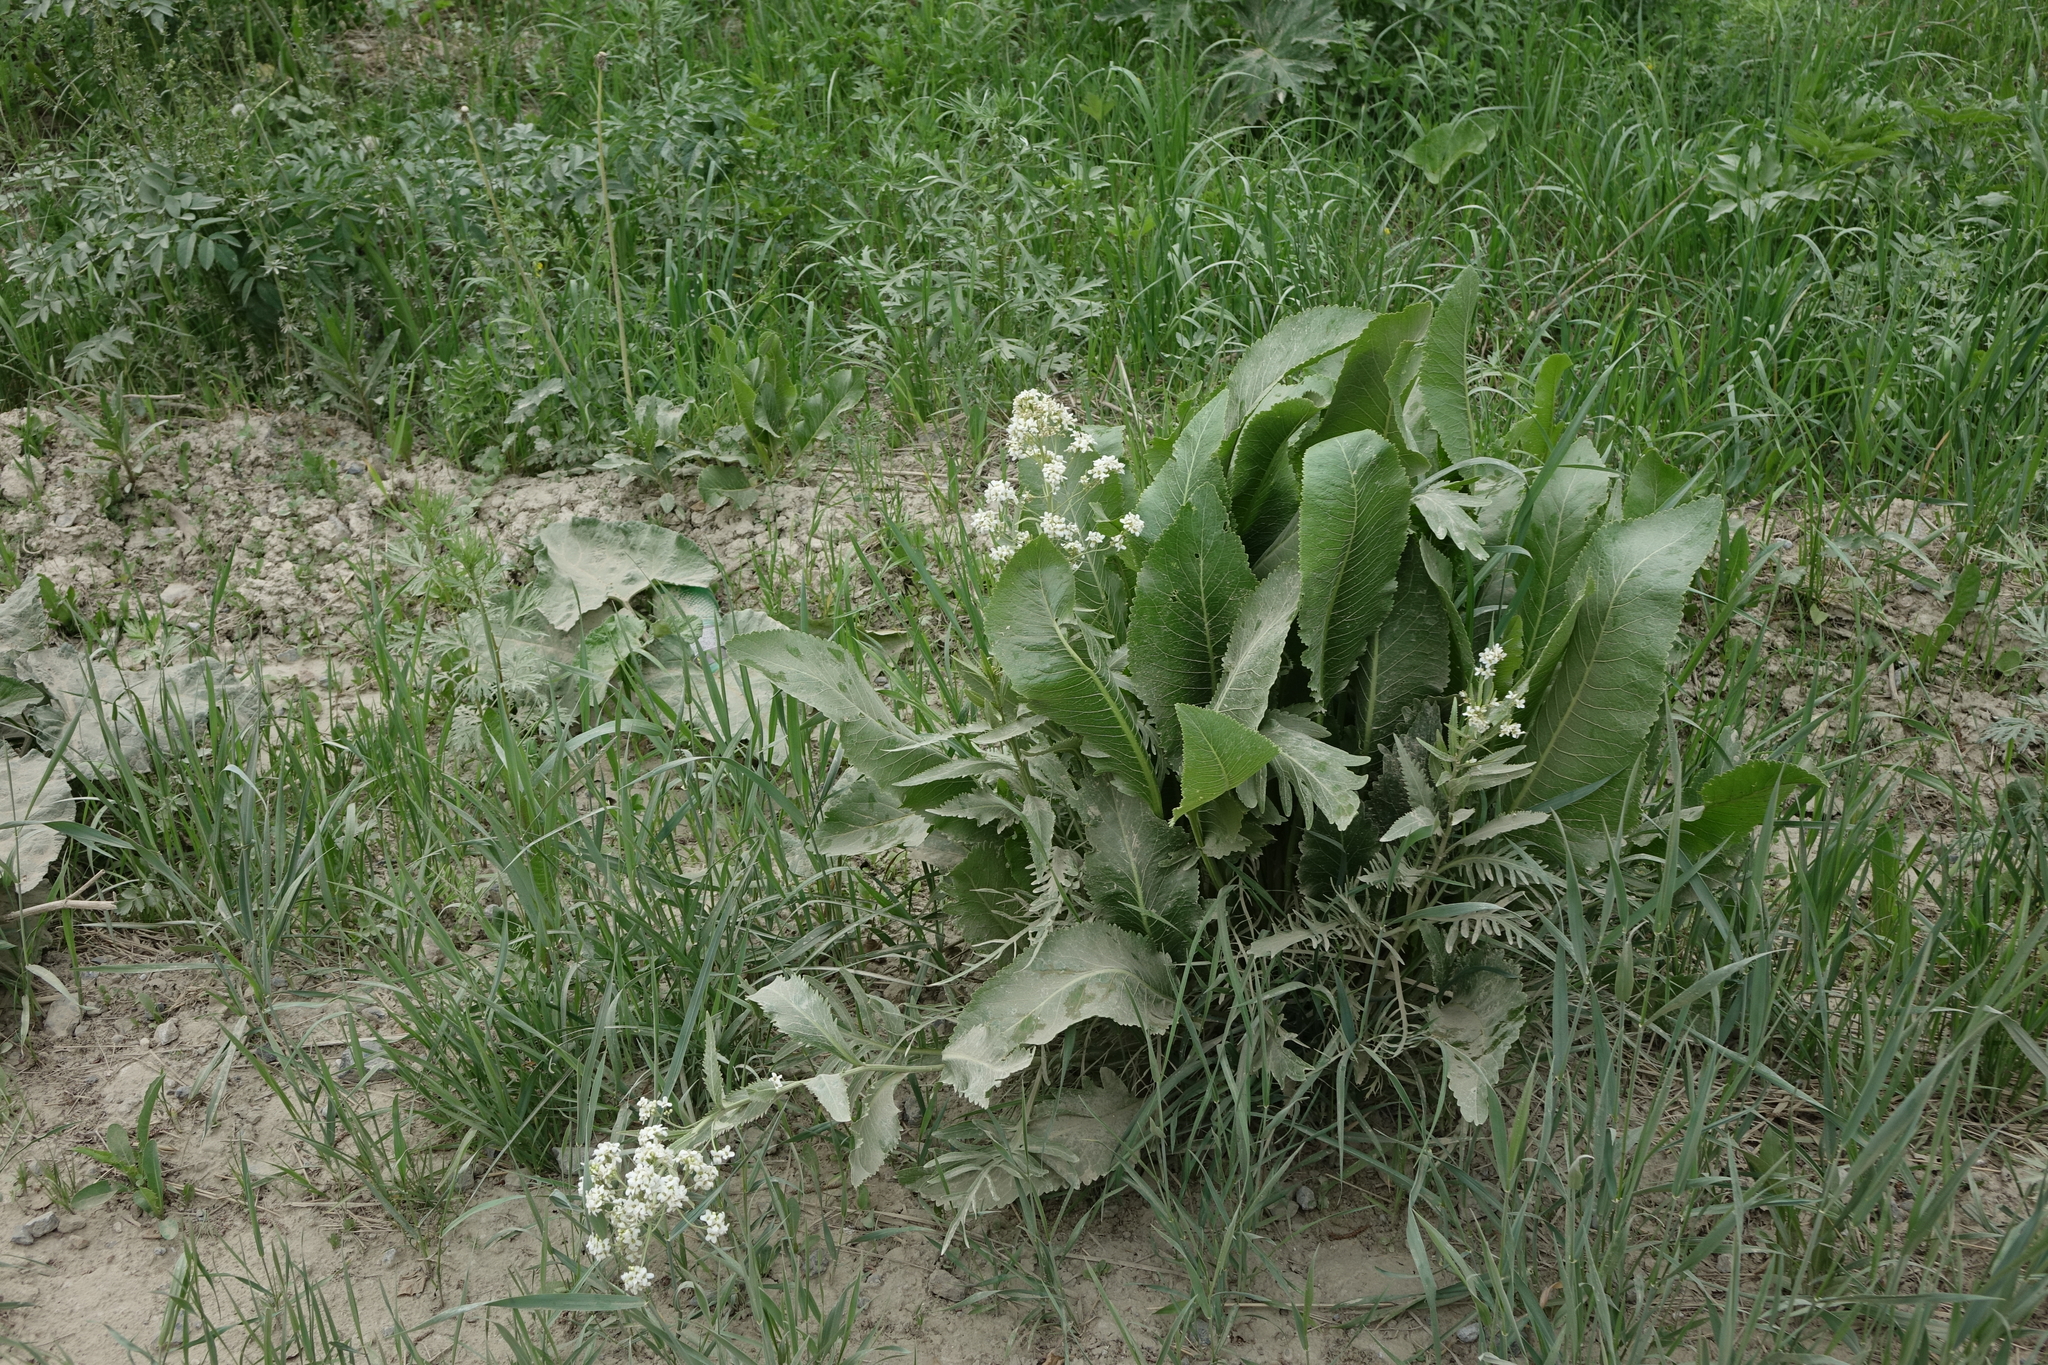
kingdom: Plantae
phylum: Tracheophyta
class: Magnoliopsida
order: Brassicales
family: Brassicaceae
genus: Armoracia
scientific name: Armoracia rusticana
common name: Horseradish
